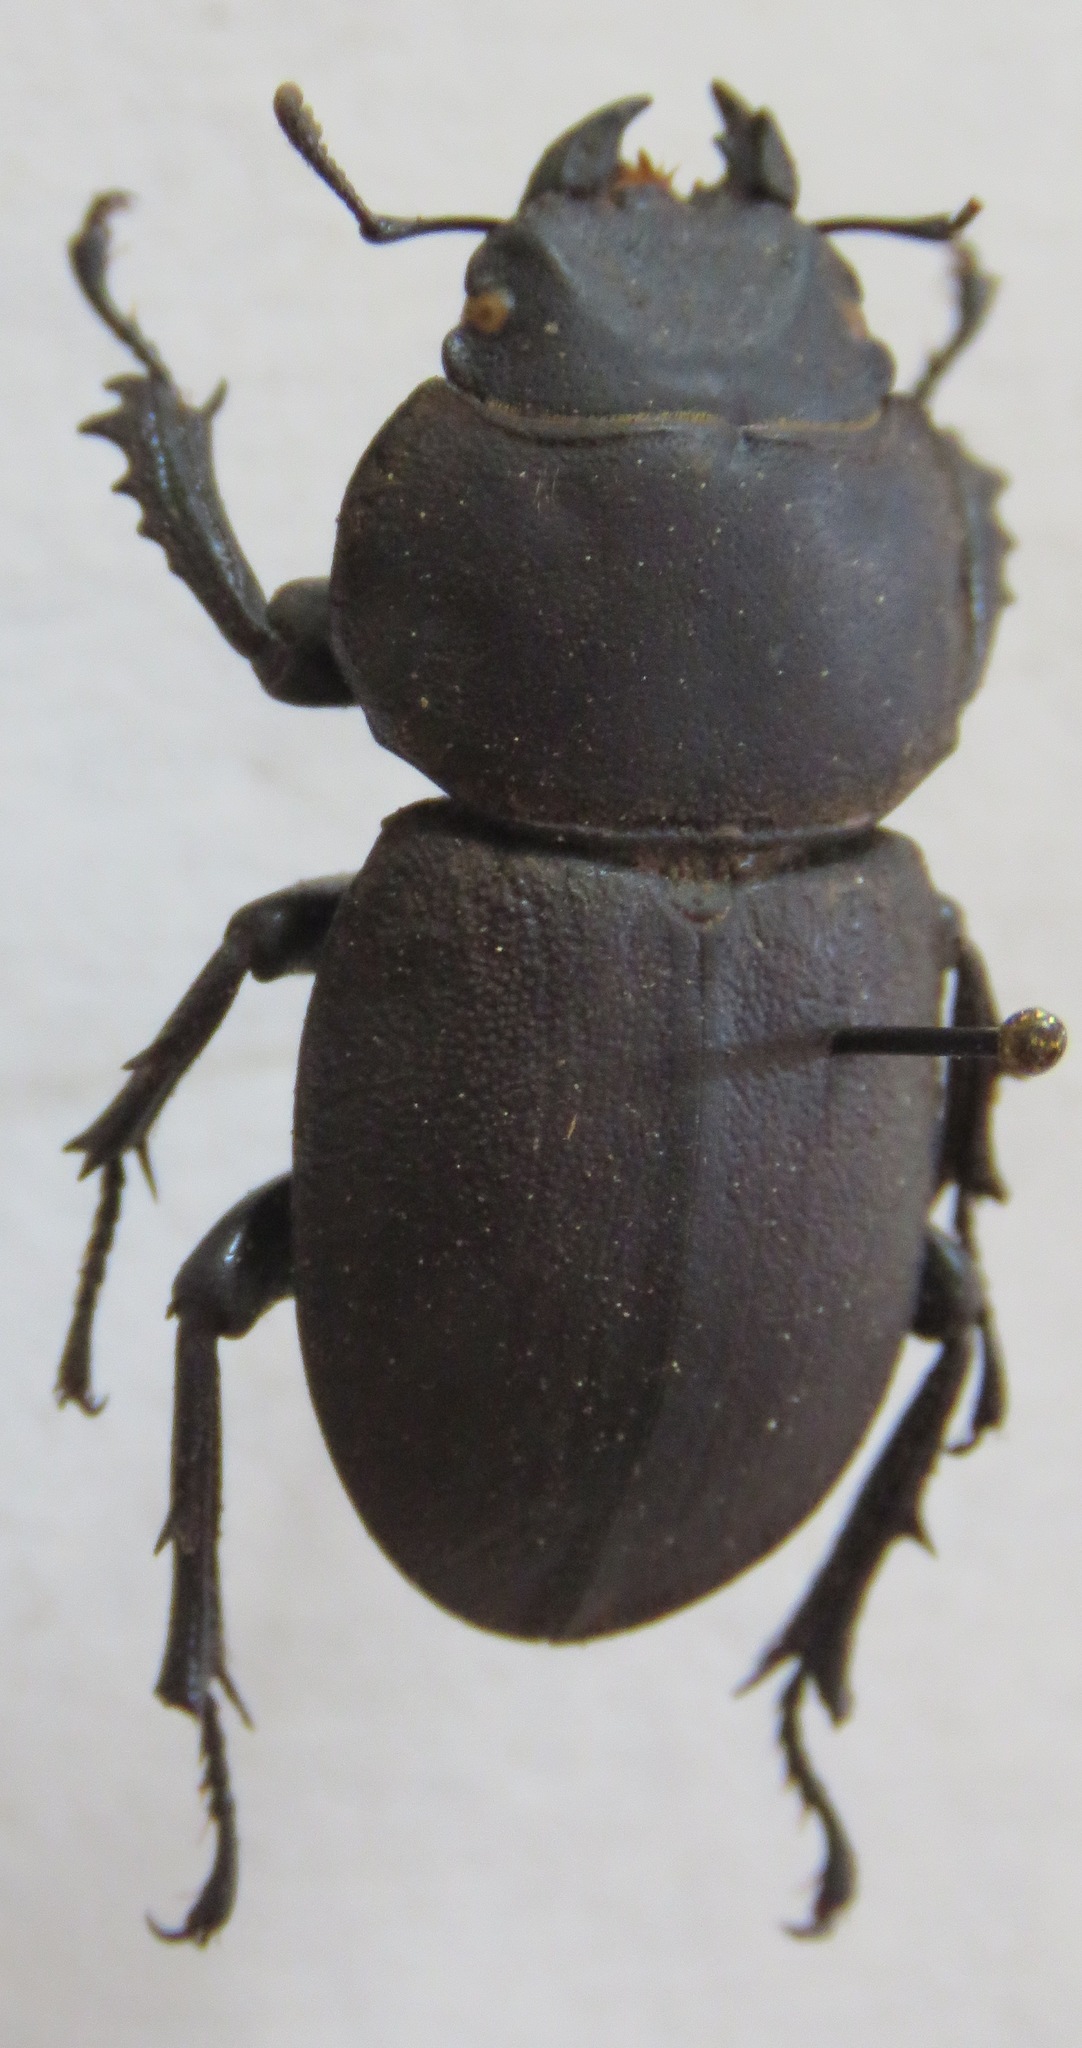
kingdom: Animalia
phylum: Arthropoda
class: Insecta
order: Coleoptera
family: Lucanidae
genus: Apterodorcus
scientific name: Apterodorcus bacchus
